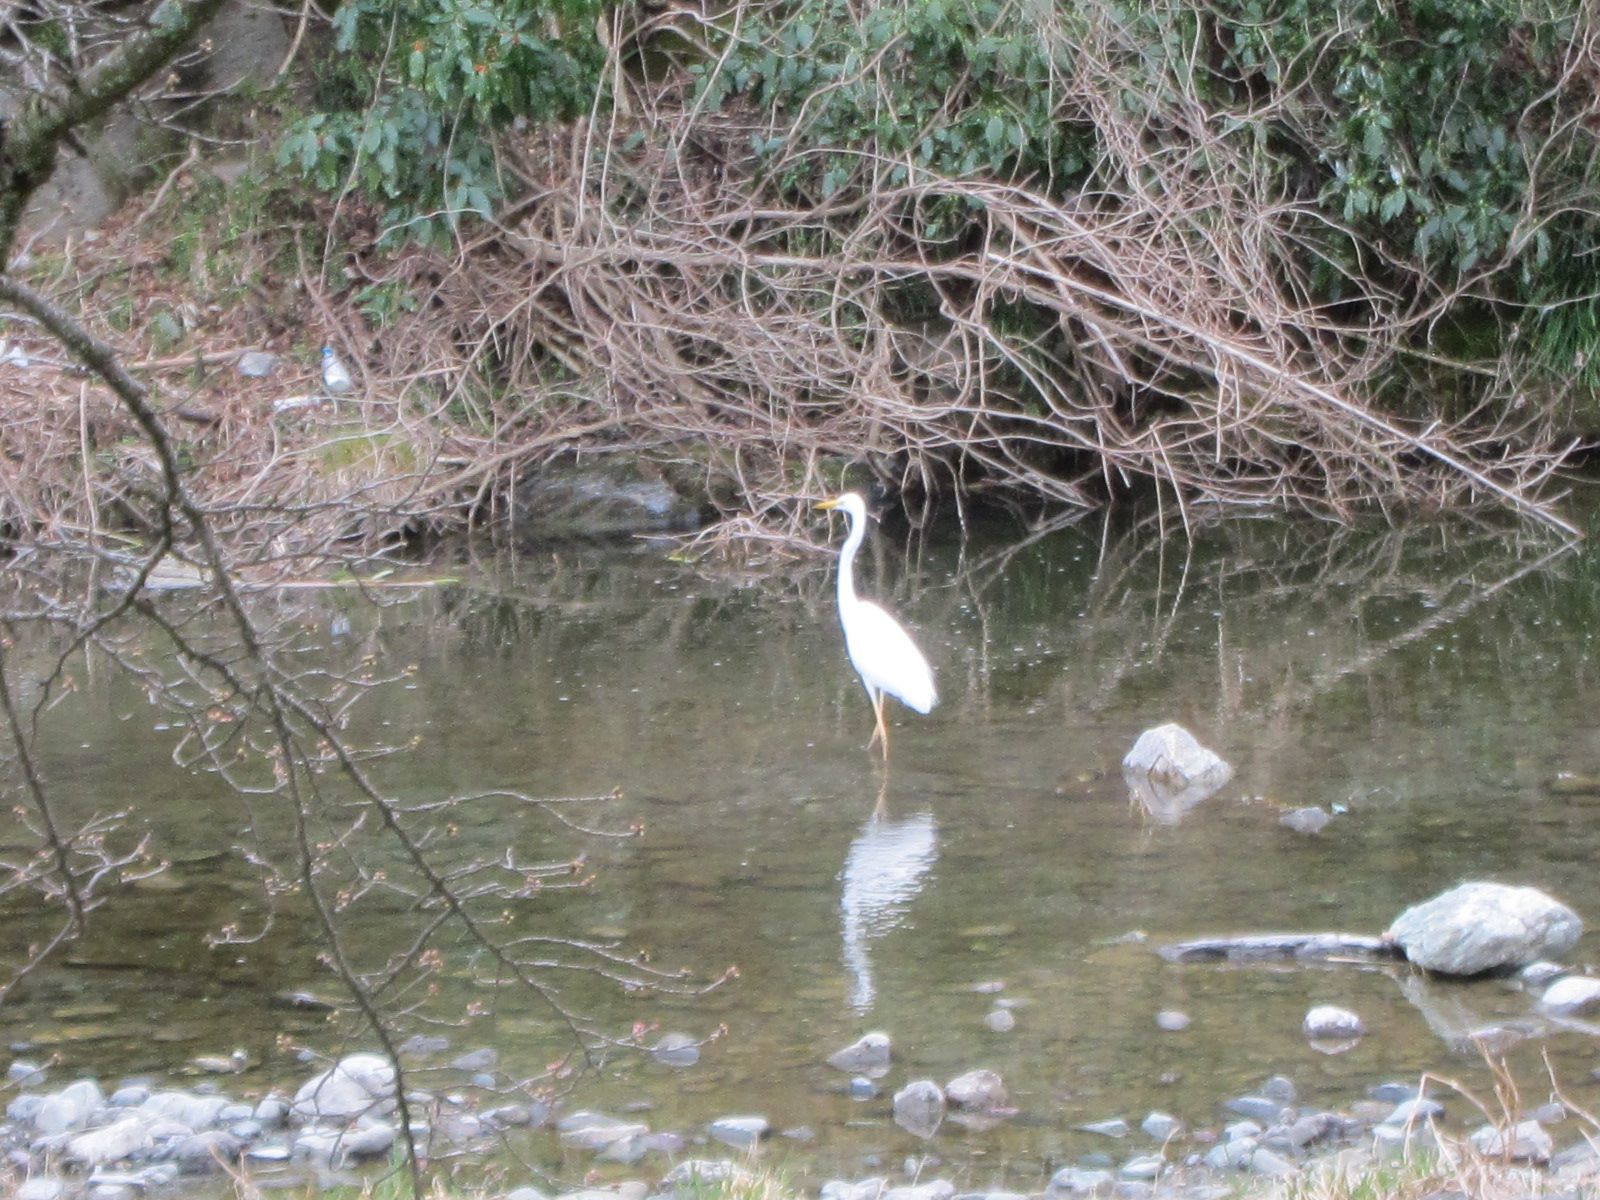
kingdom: Animalia
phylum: Chordata
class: Aves
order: Pelecaniformes
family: Ardeidae
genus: Ardea
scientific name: Ardea modesta
